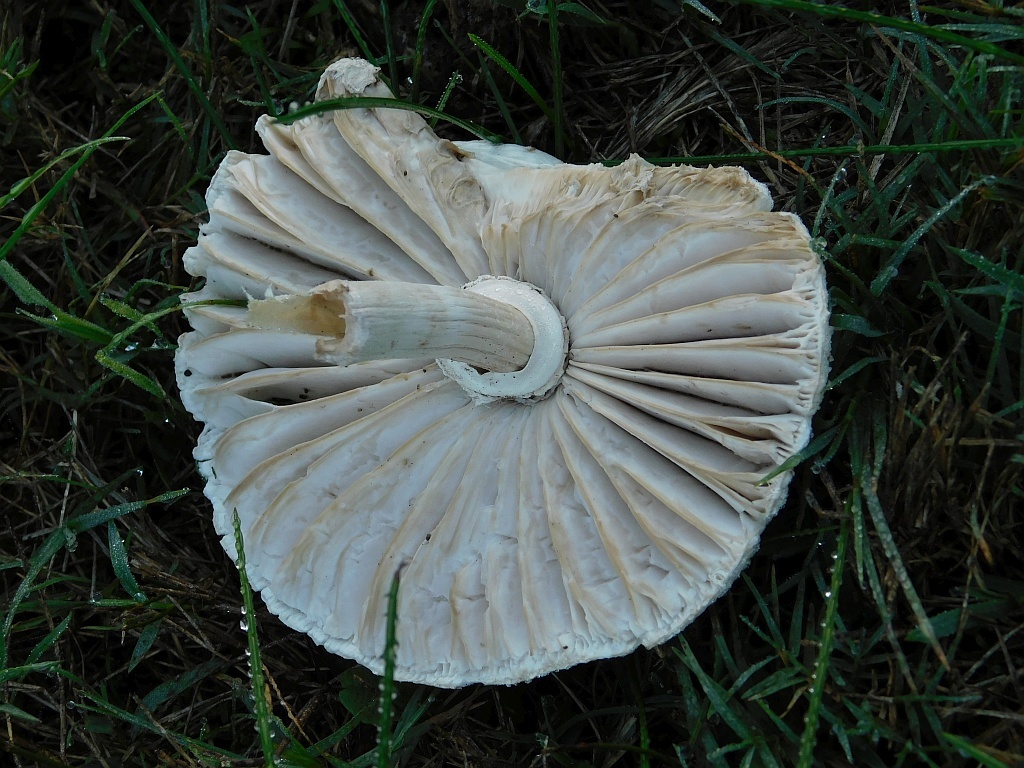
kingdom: Fungi
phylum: Basidiomycota
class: Agaricomycetes
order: Agaricales
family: Agaricaceae
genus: Macrolepiota
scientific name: Macrolepiota zeyheri
